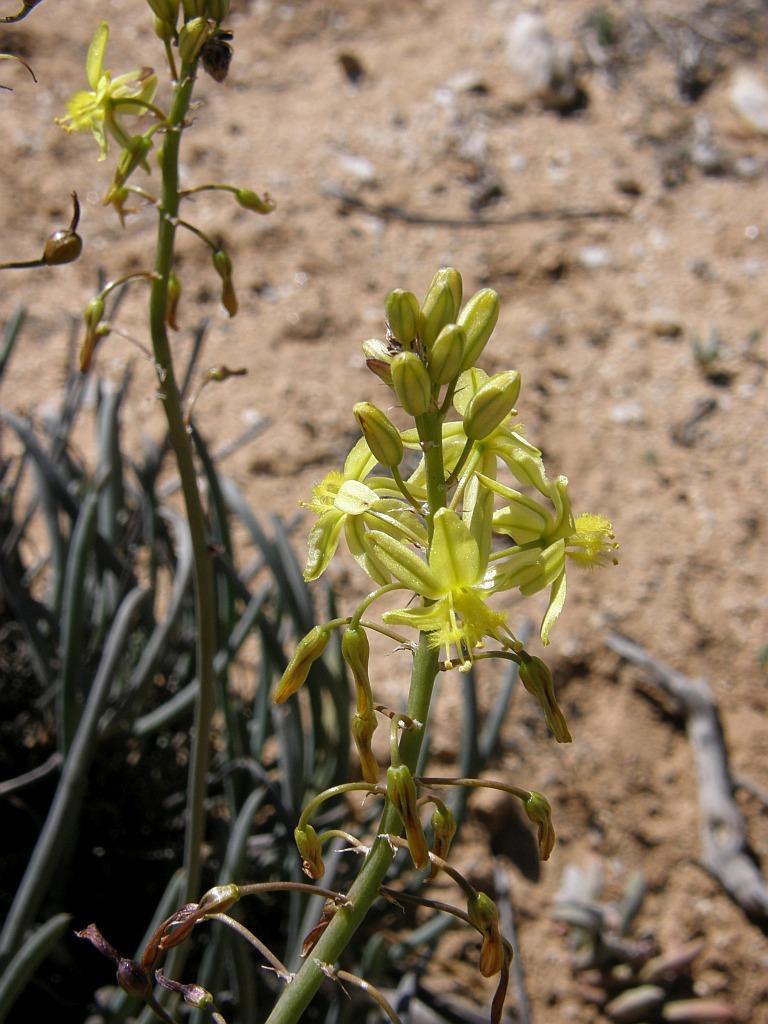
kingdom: Plantae
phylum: Tracheophyta
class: Liliopsida
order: Asparagales
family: Asphodelaceae
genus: Bulbine
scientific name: Bulbine frutescens
